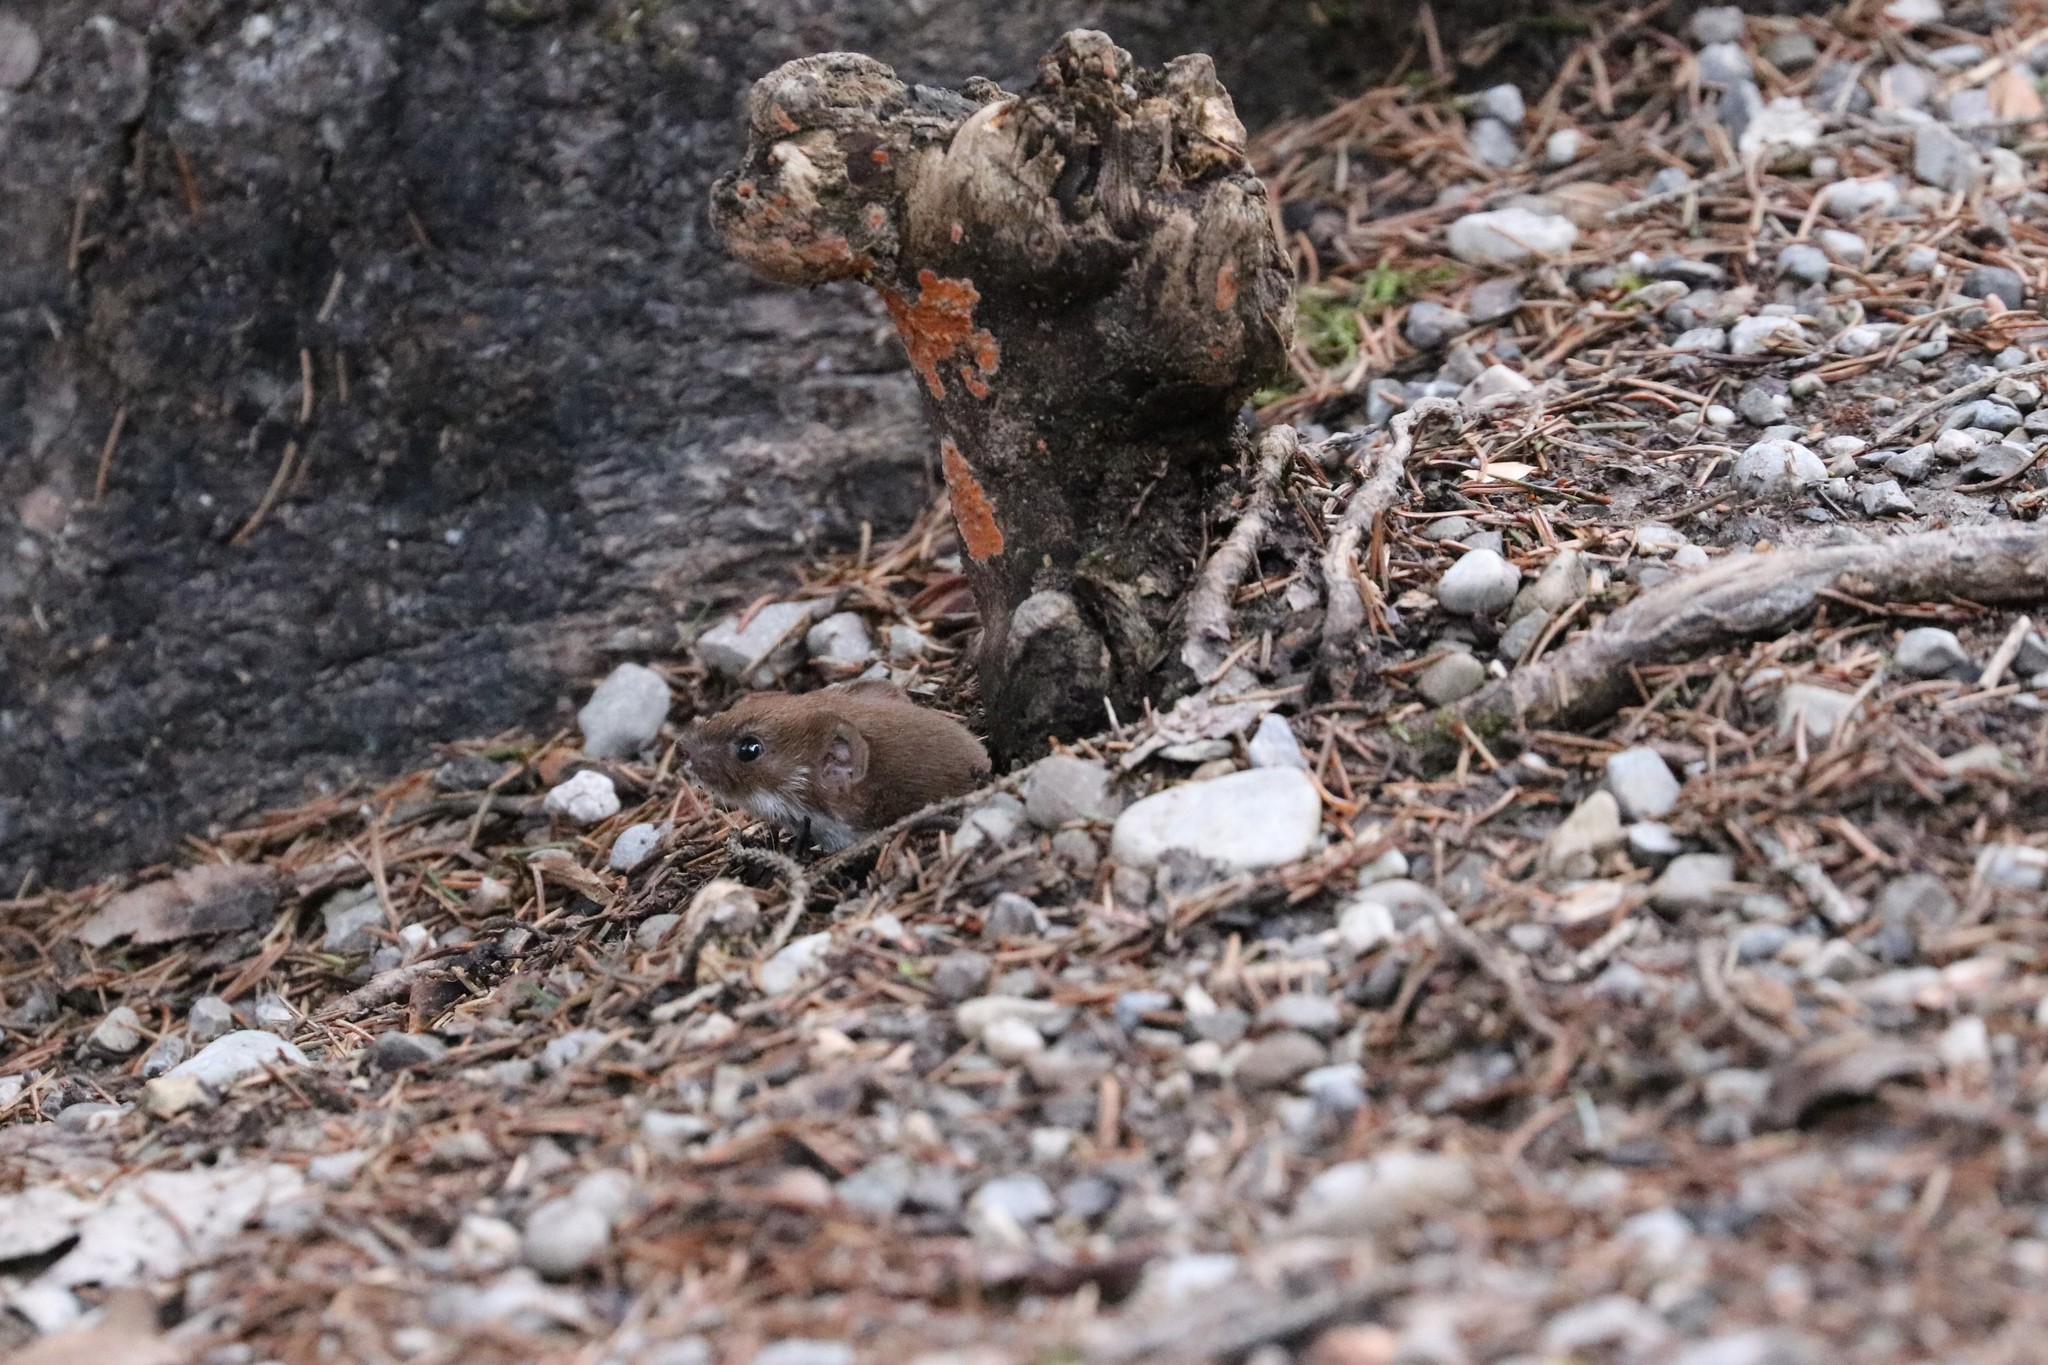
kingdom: Animalia
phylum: Chordata
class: Mammalia
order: Carnivora
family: Mustelidae
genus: Mustela
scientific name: Mustela nivalis
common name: Least weasel
